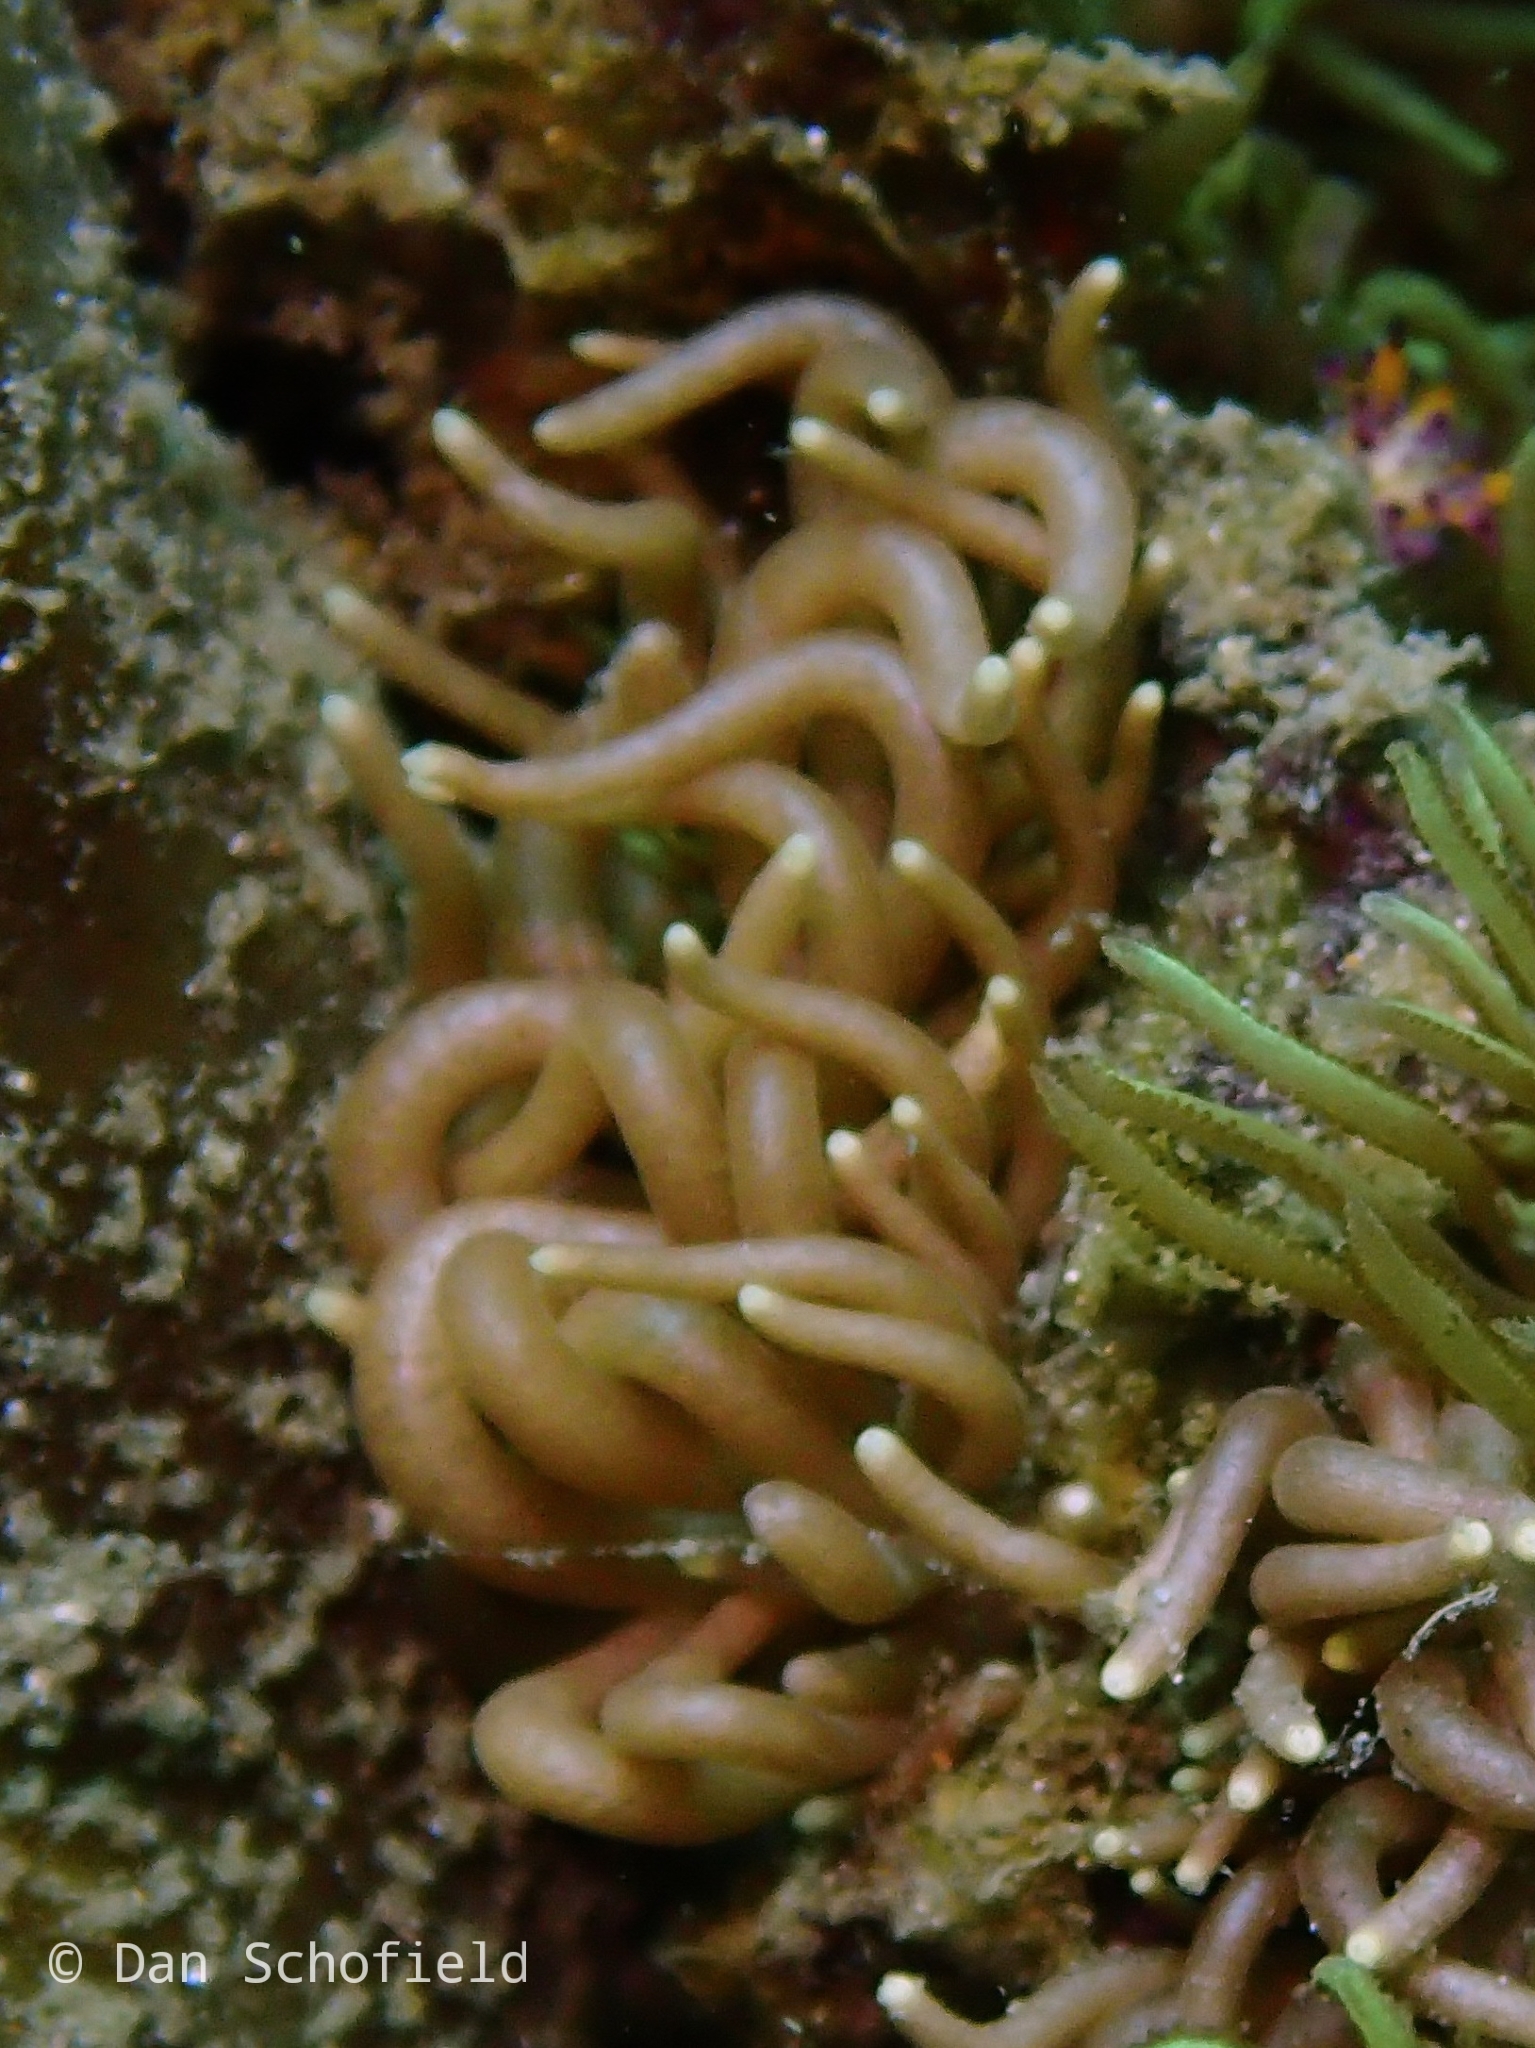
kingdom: Animalia
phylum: Mollusca
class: Gastropoda
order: Nudibranchia
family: Myrrhinidae
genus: Phyllodesmium
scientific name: Phyllodesmium briareum
